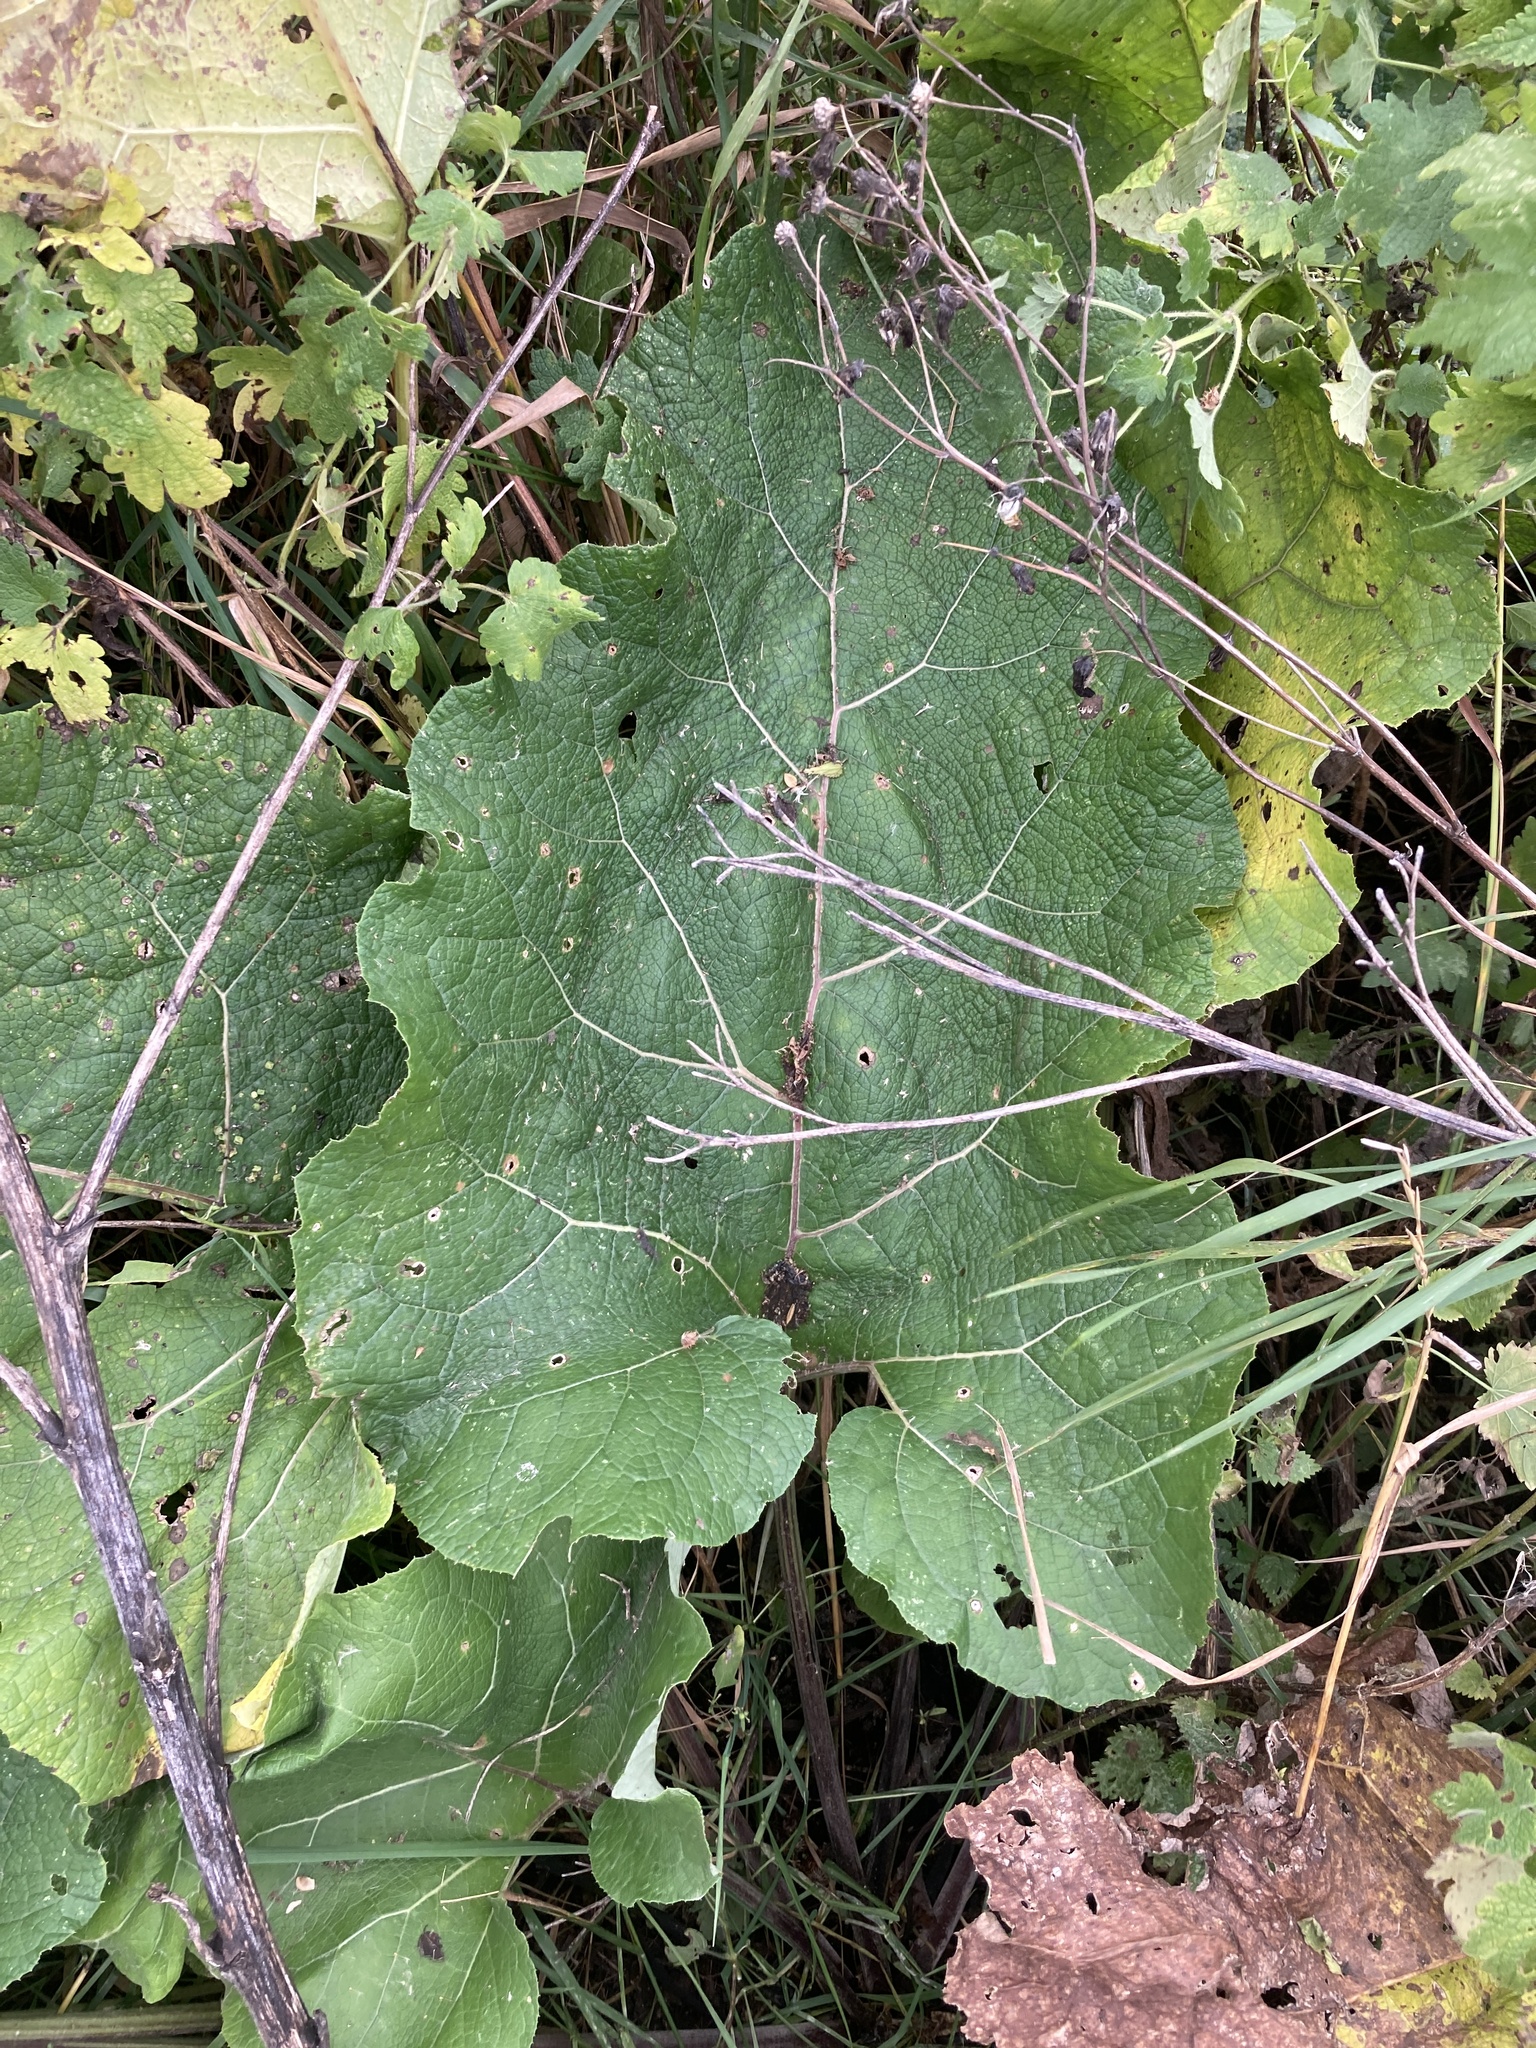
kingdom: Plantae
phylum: Tracheophyta
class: Magnoliopsida
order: Asterales
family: Asteraceae
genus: Arctium
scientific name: Arctium
